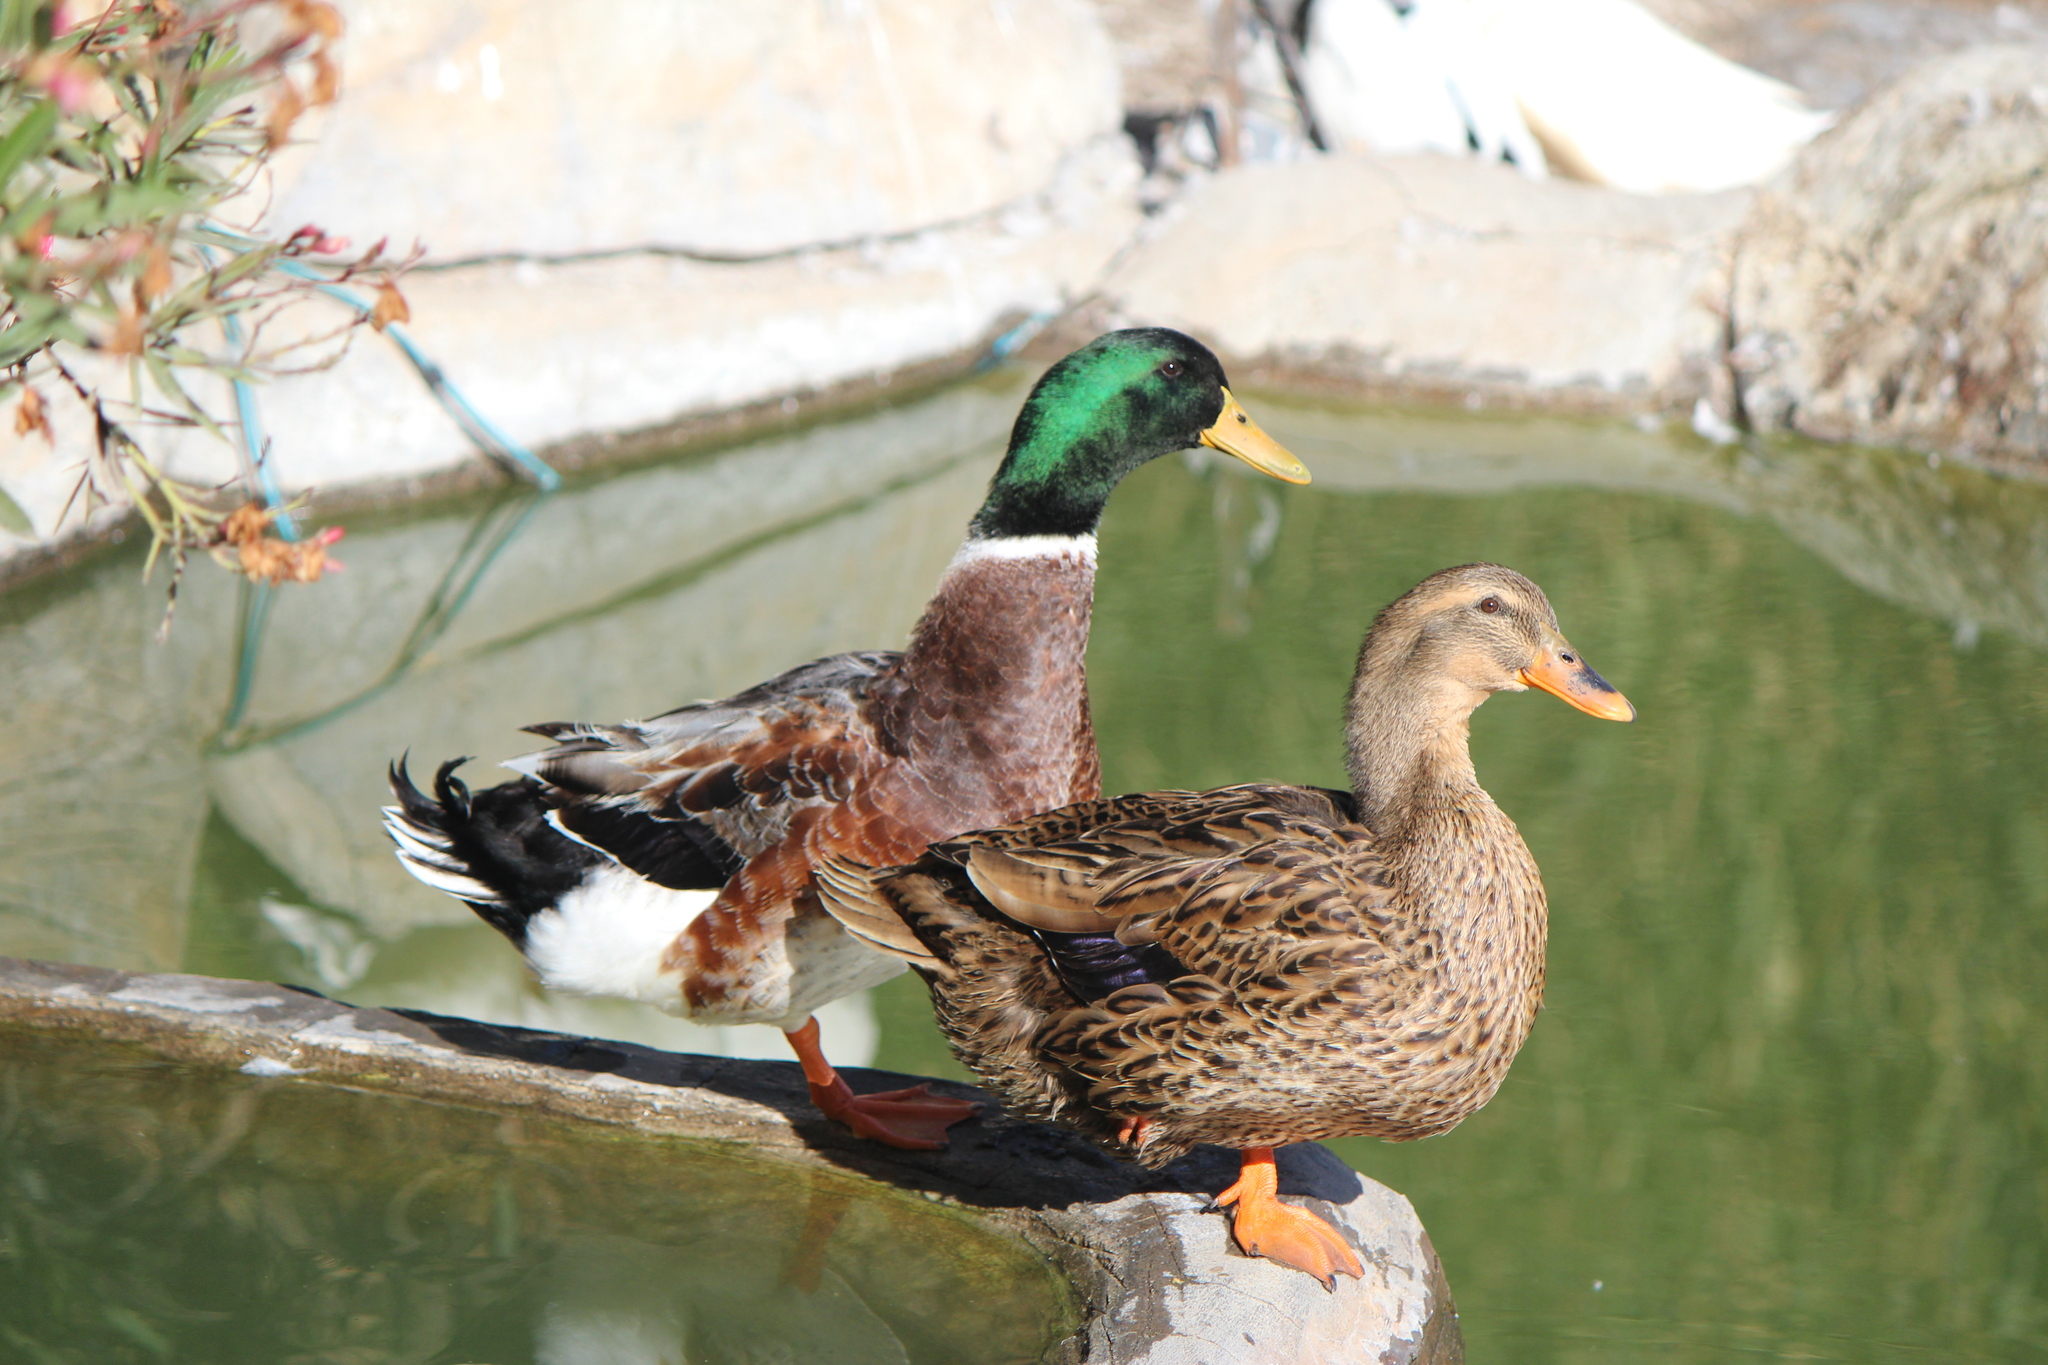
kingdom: Animalia
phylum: Chordata
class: Aves
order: Anseriformes
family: Anatidae
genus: Anas
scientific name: Anas platyrhynchos
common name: Mallard
